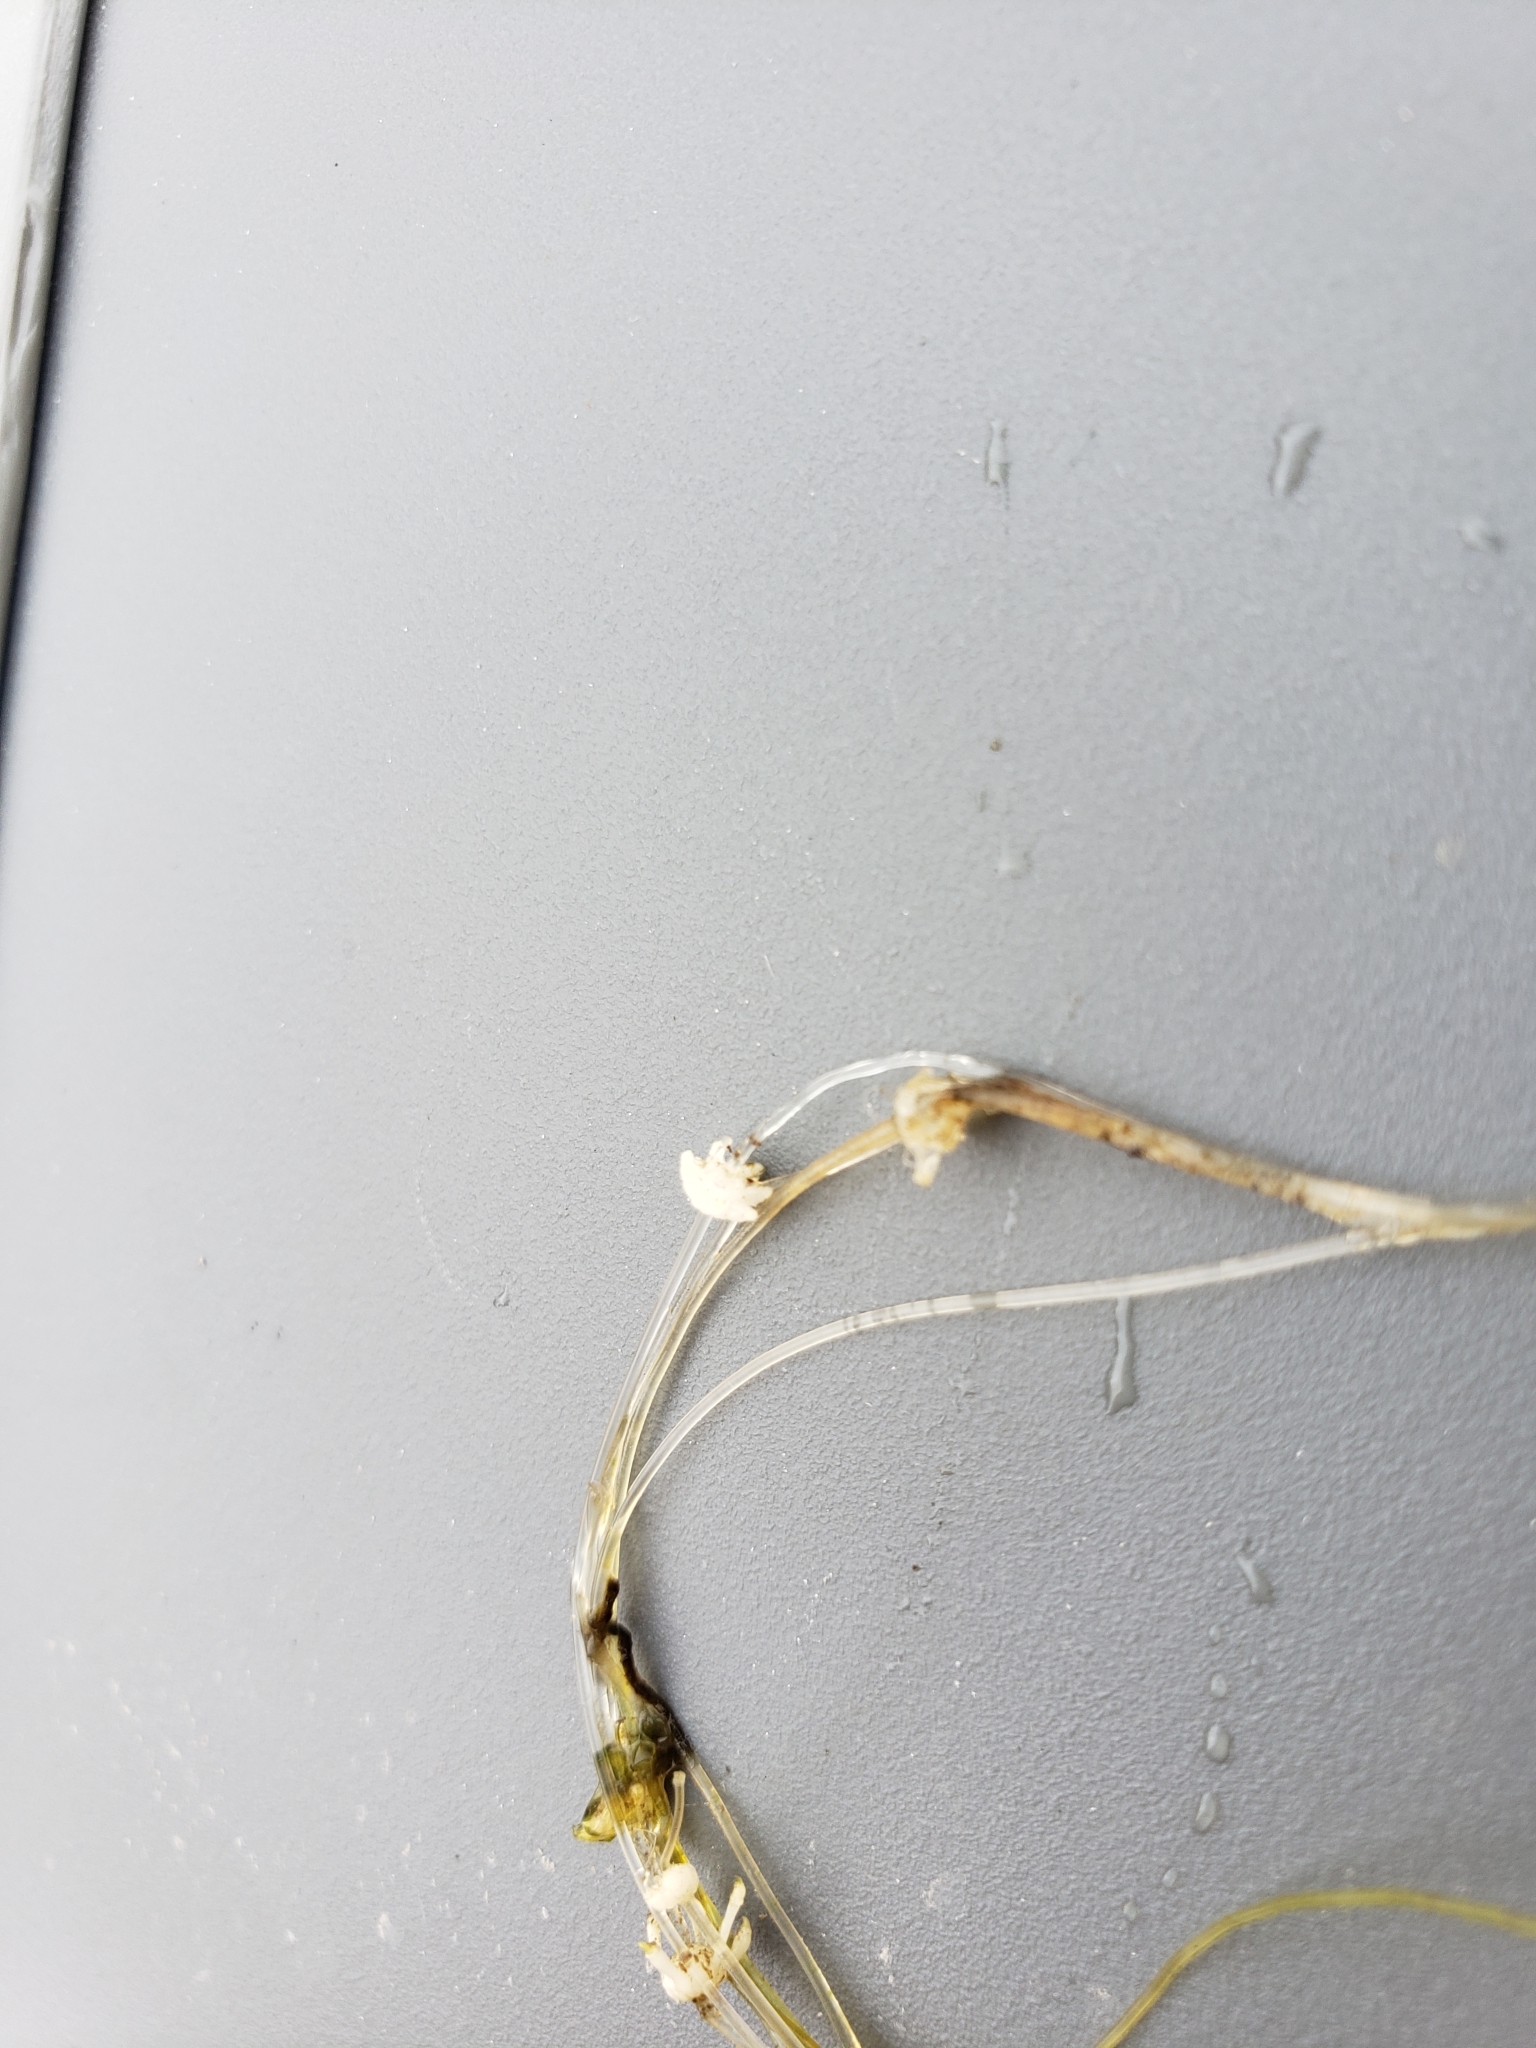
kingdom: Plantae
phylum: Charophyta
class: Charophyceae
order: Charales
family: Characeae
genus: Nitellopsis
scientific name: Nitellopsis obtusa
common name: Starry stonewort
